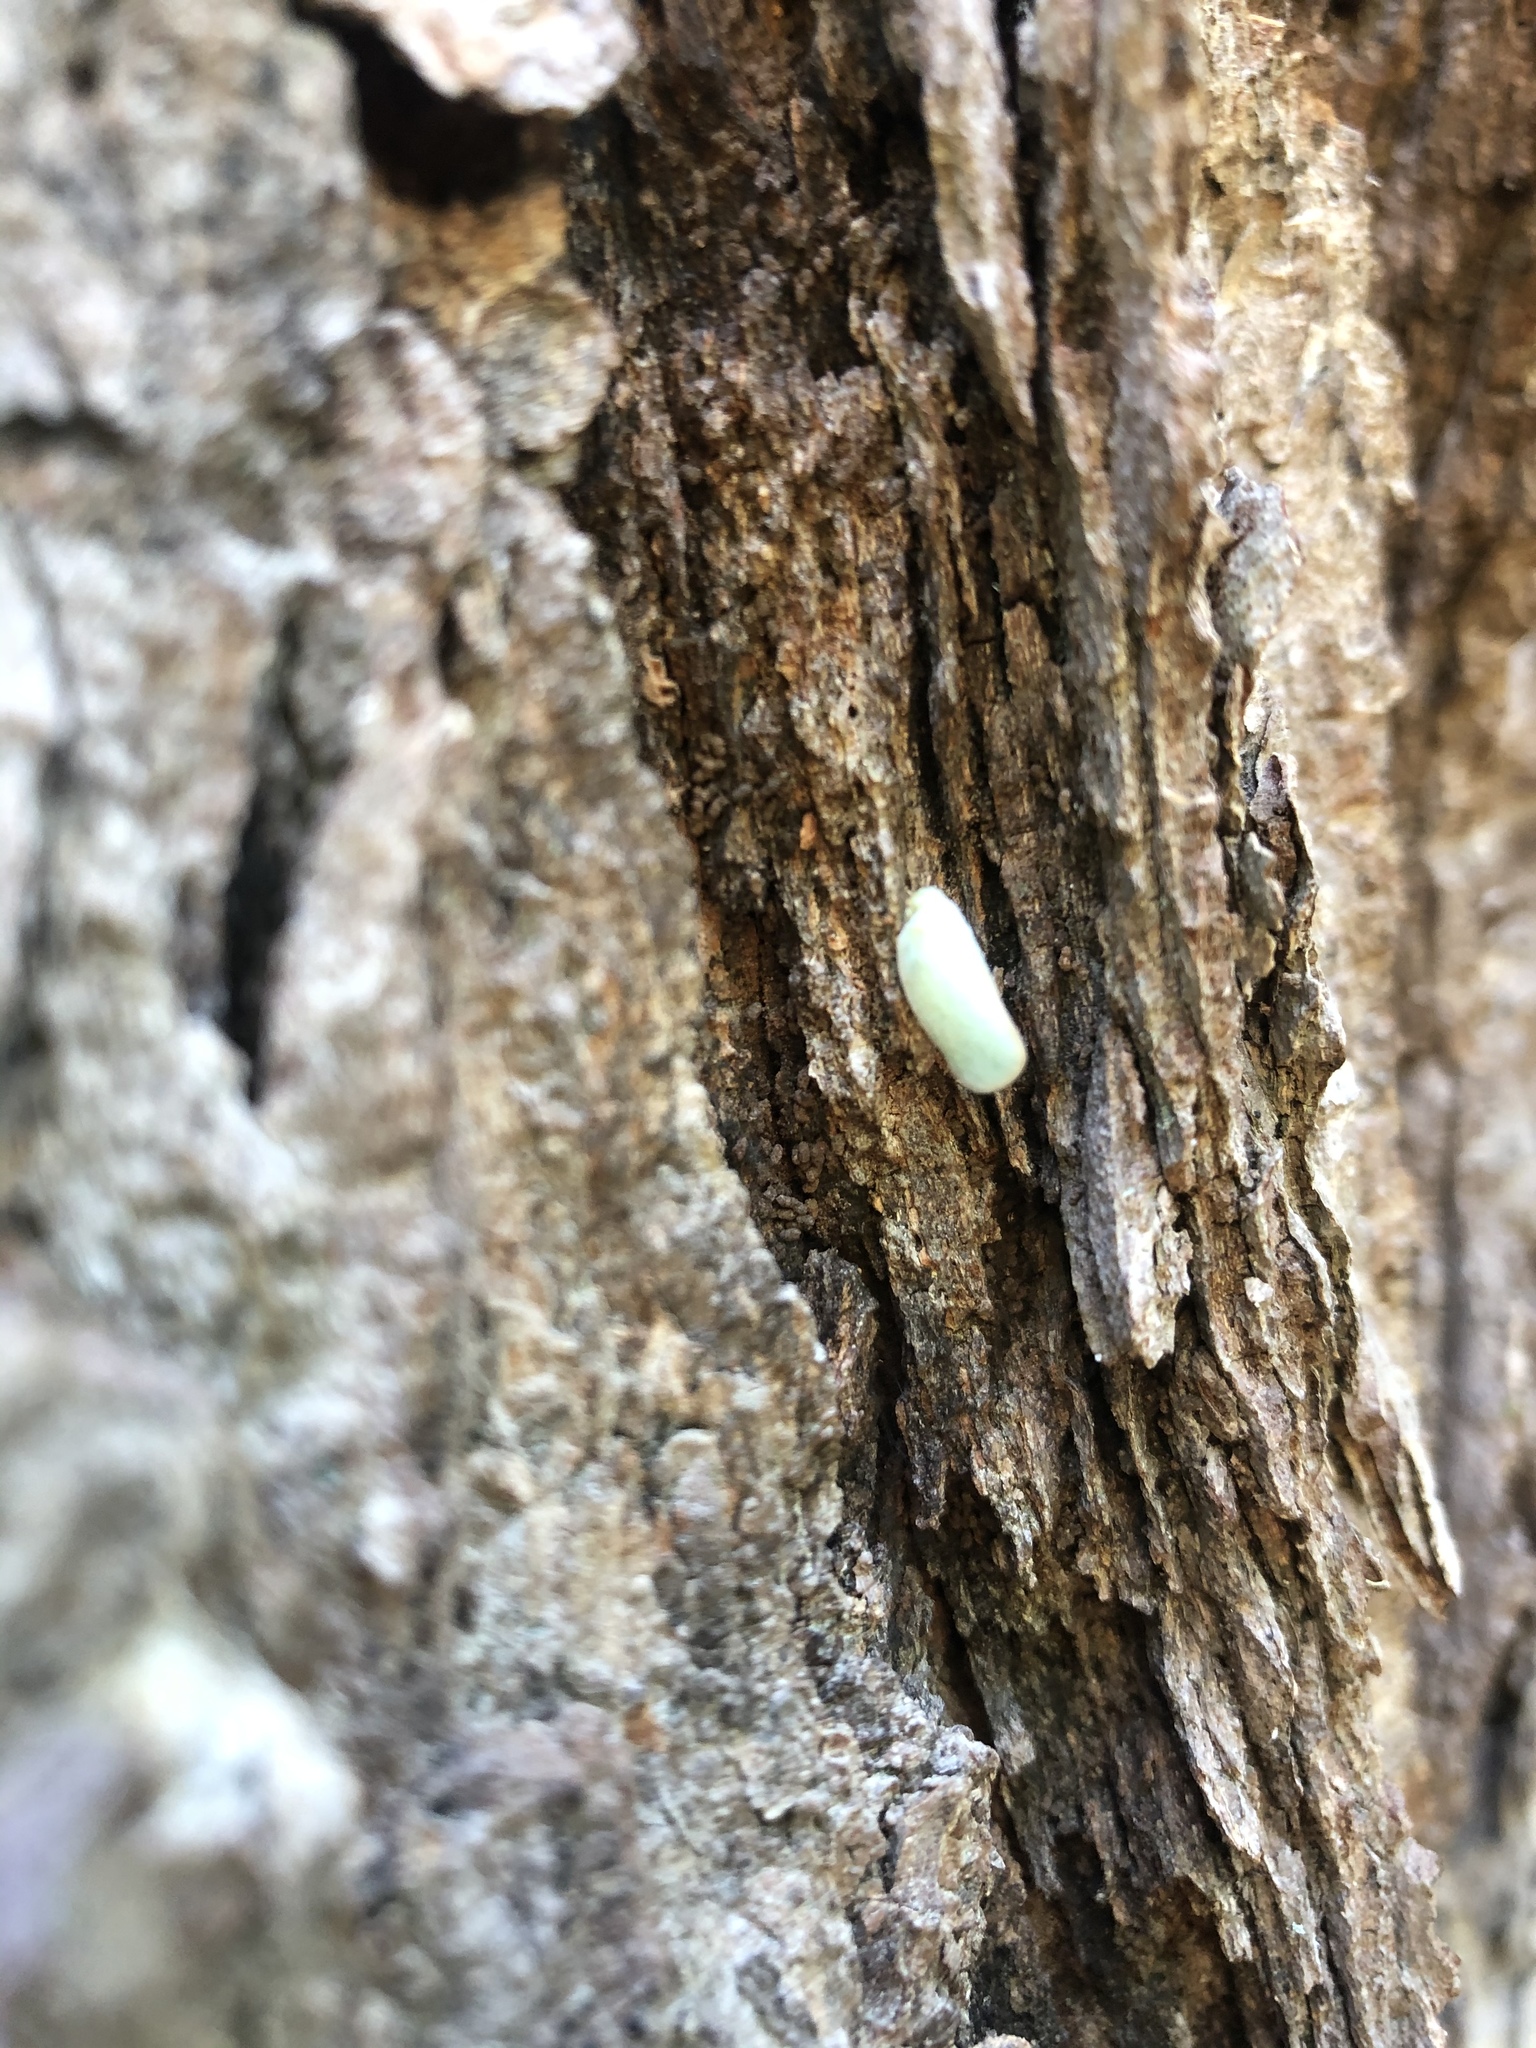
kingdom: Animalia
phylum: Arthropoda
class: Insecta
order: Hemiptera
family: Flatidae
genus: Ormenoides
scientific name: Ormenoides venusta
